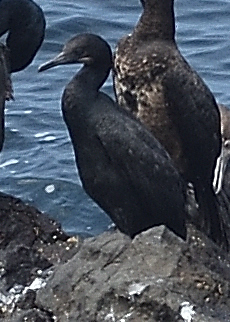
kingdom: Animalia
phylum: Chordata
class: Aves
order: Suliformes
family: Phalacrocoracidae
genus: Urile
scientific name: Urile penicillatus
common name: Brandt's cormorant
